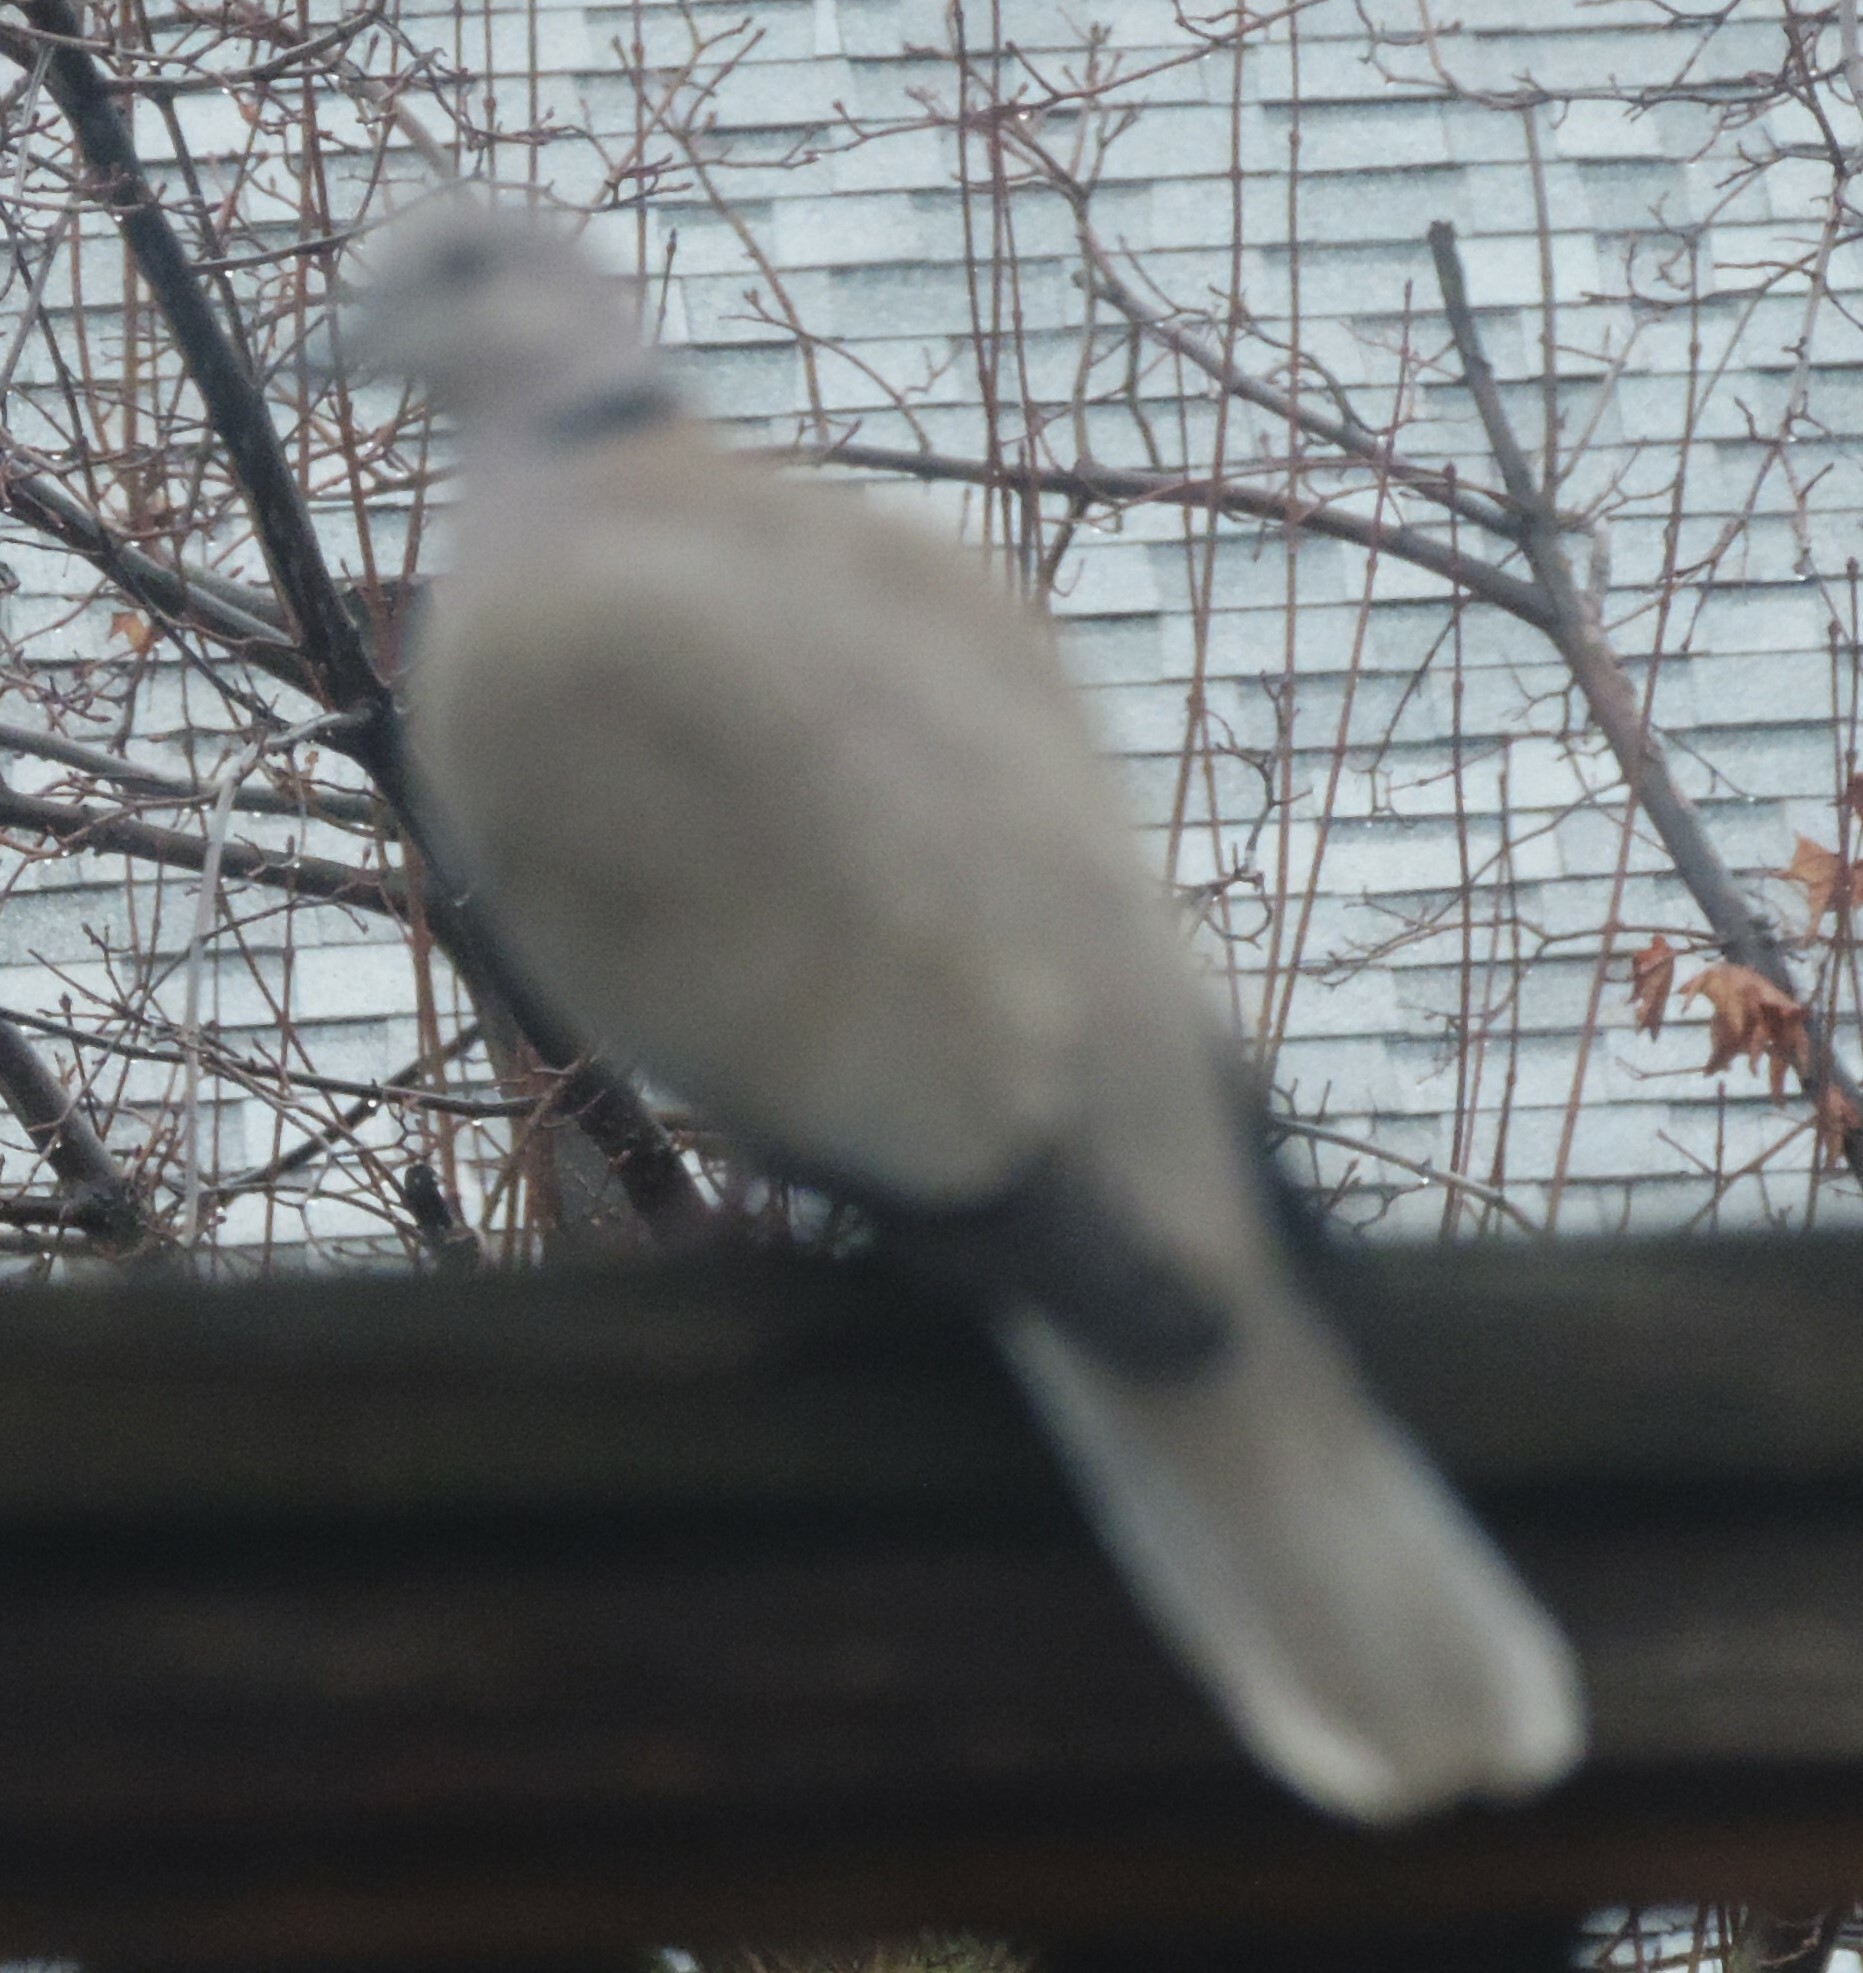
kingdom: Animalia
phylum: Chordata
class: Aves
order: Columbiformes
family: Columbidae
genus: Streptopelia
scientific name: Streptopelia decaocto
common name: Eurasian collared dove
